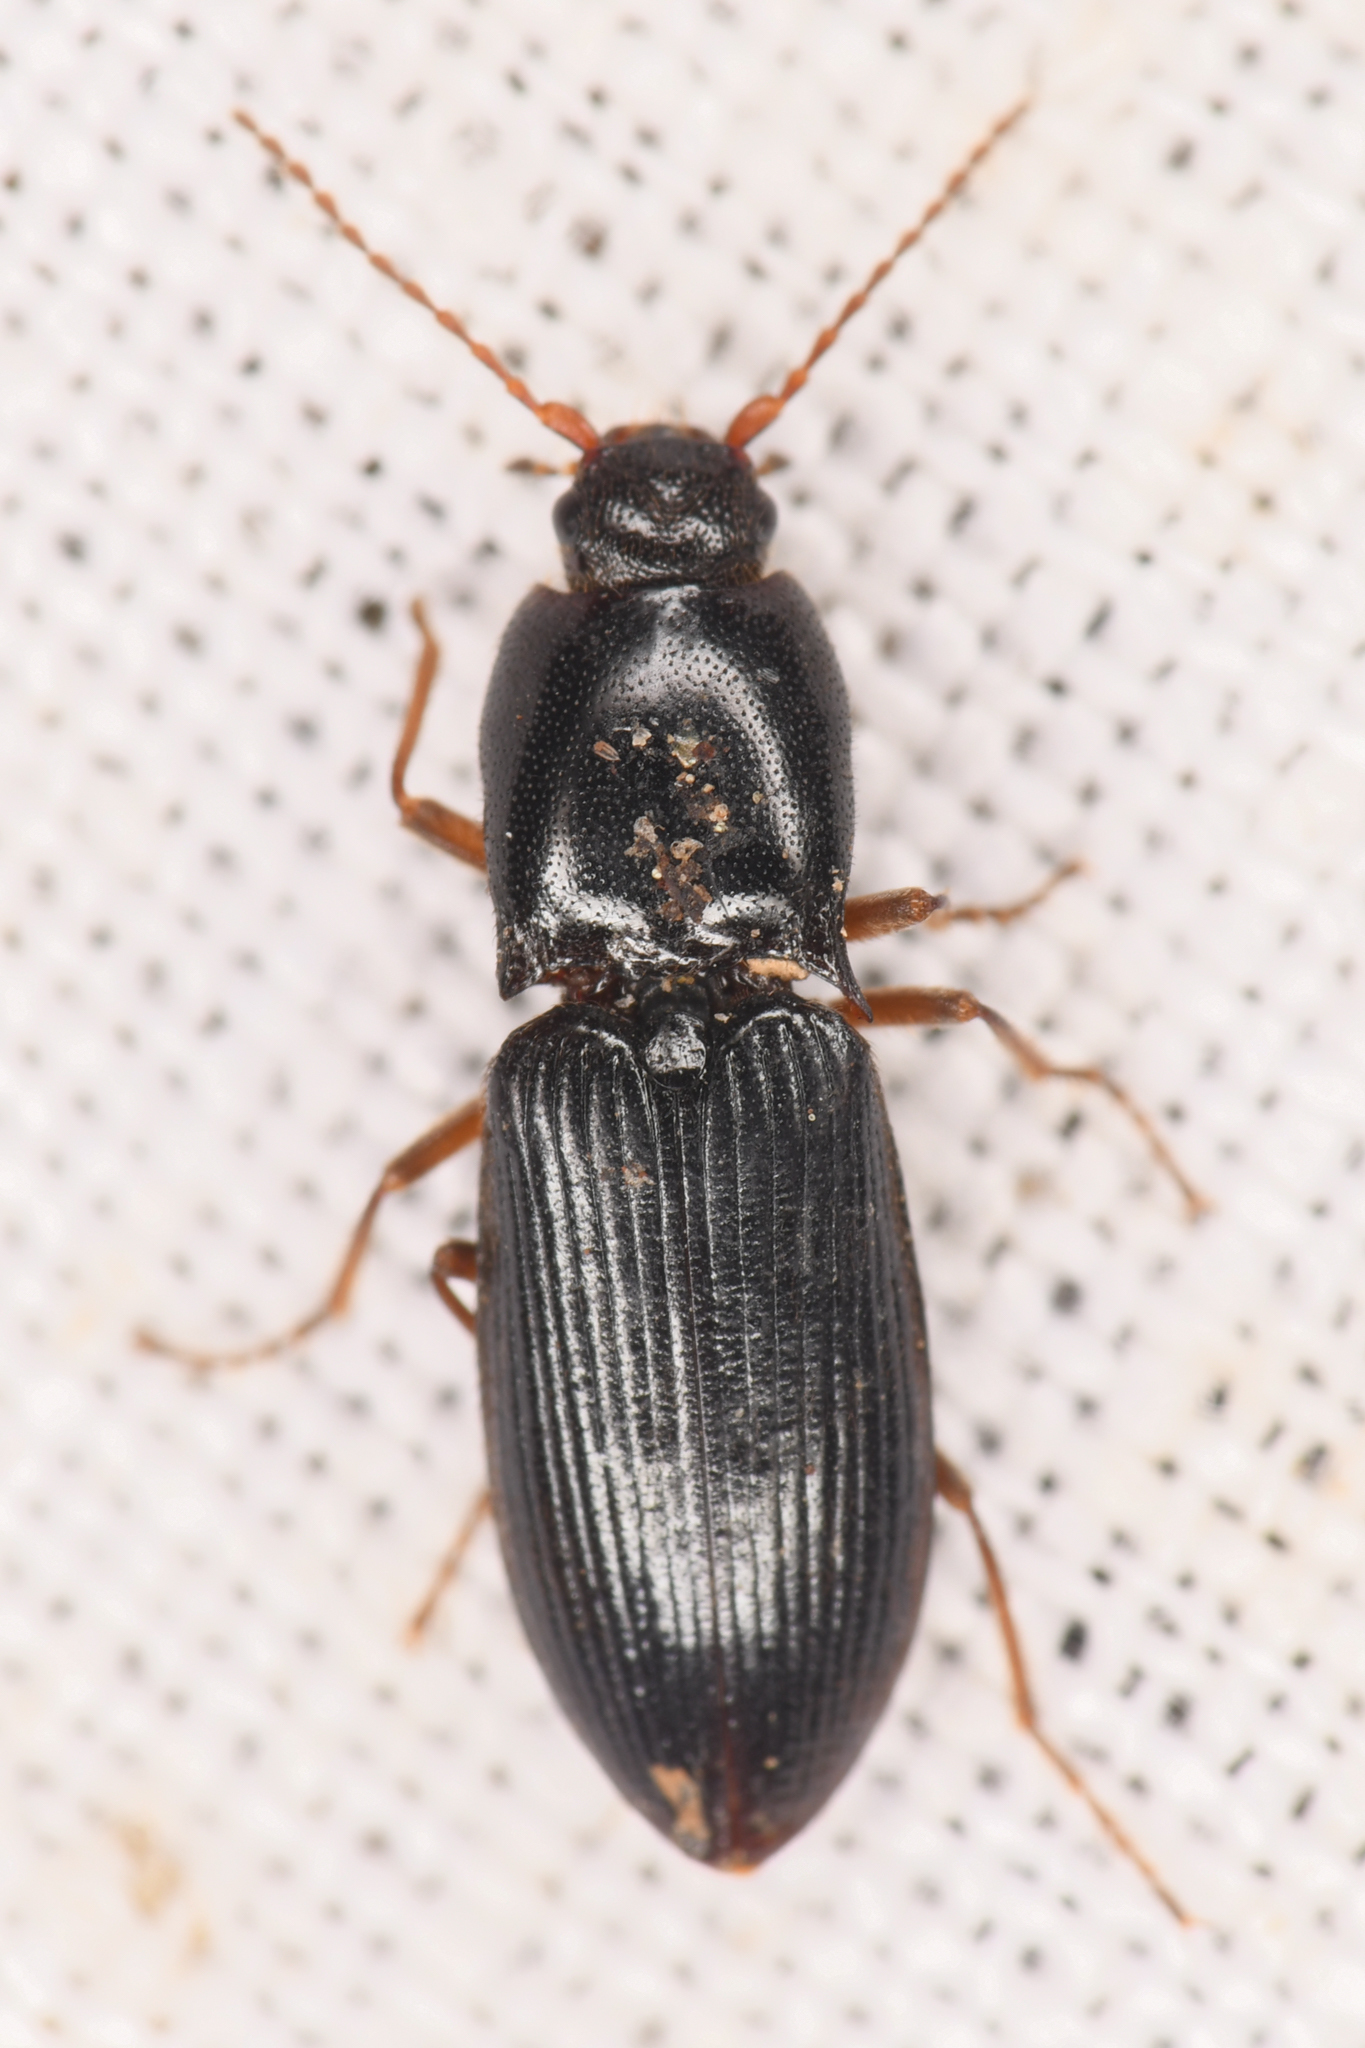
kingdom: Animalia
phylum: Arthropoda
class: Insecta
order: Coleoptera
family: Elateridae
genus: Margaiostus
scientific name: Margaiostus glacialis
